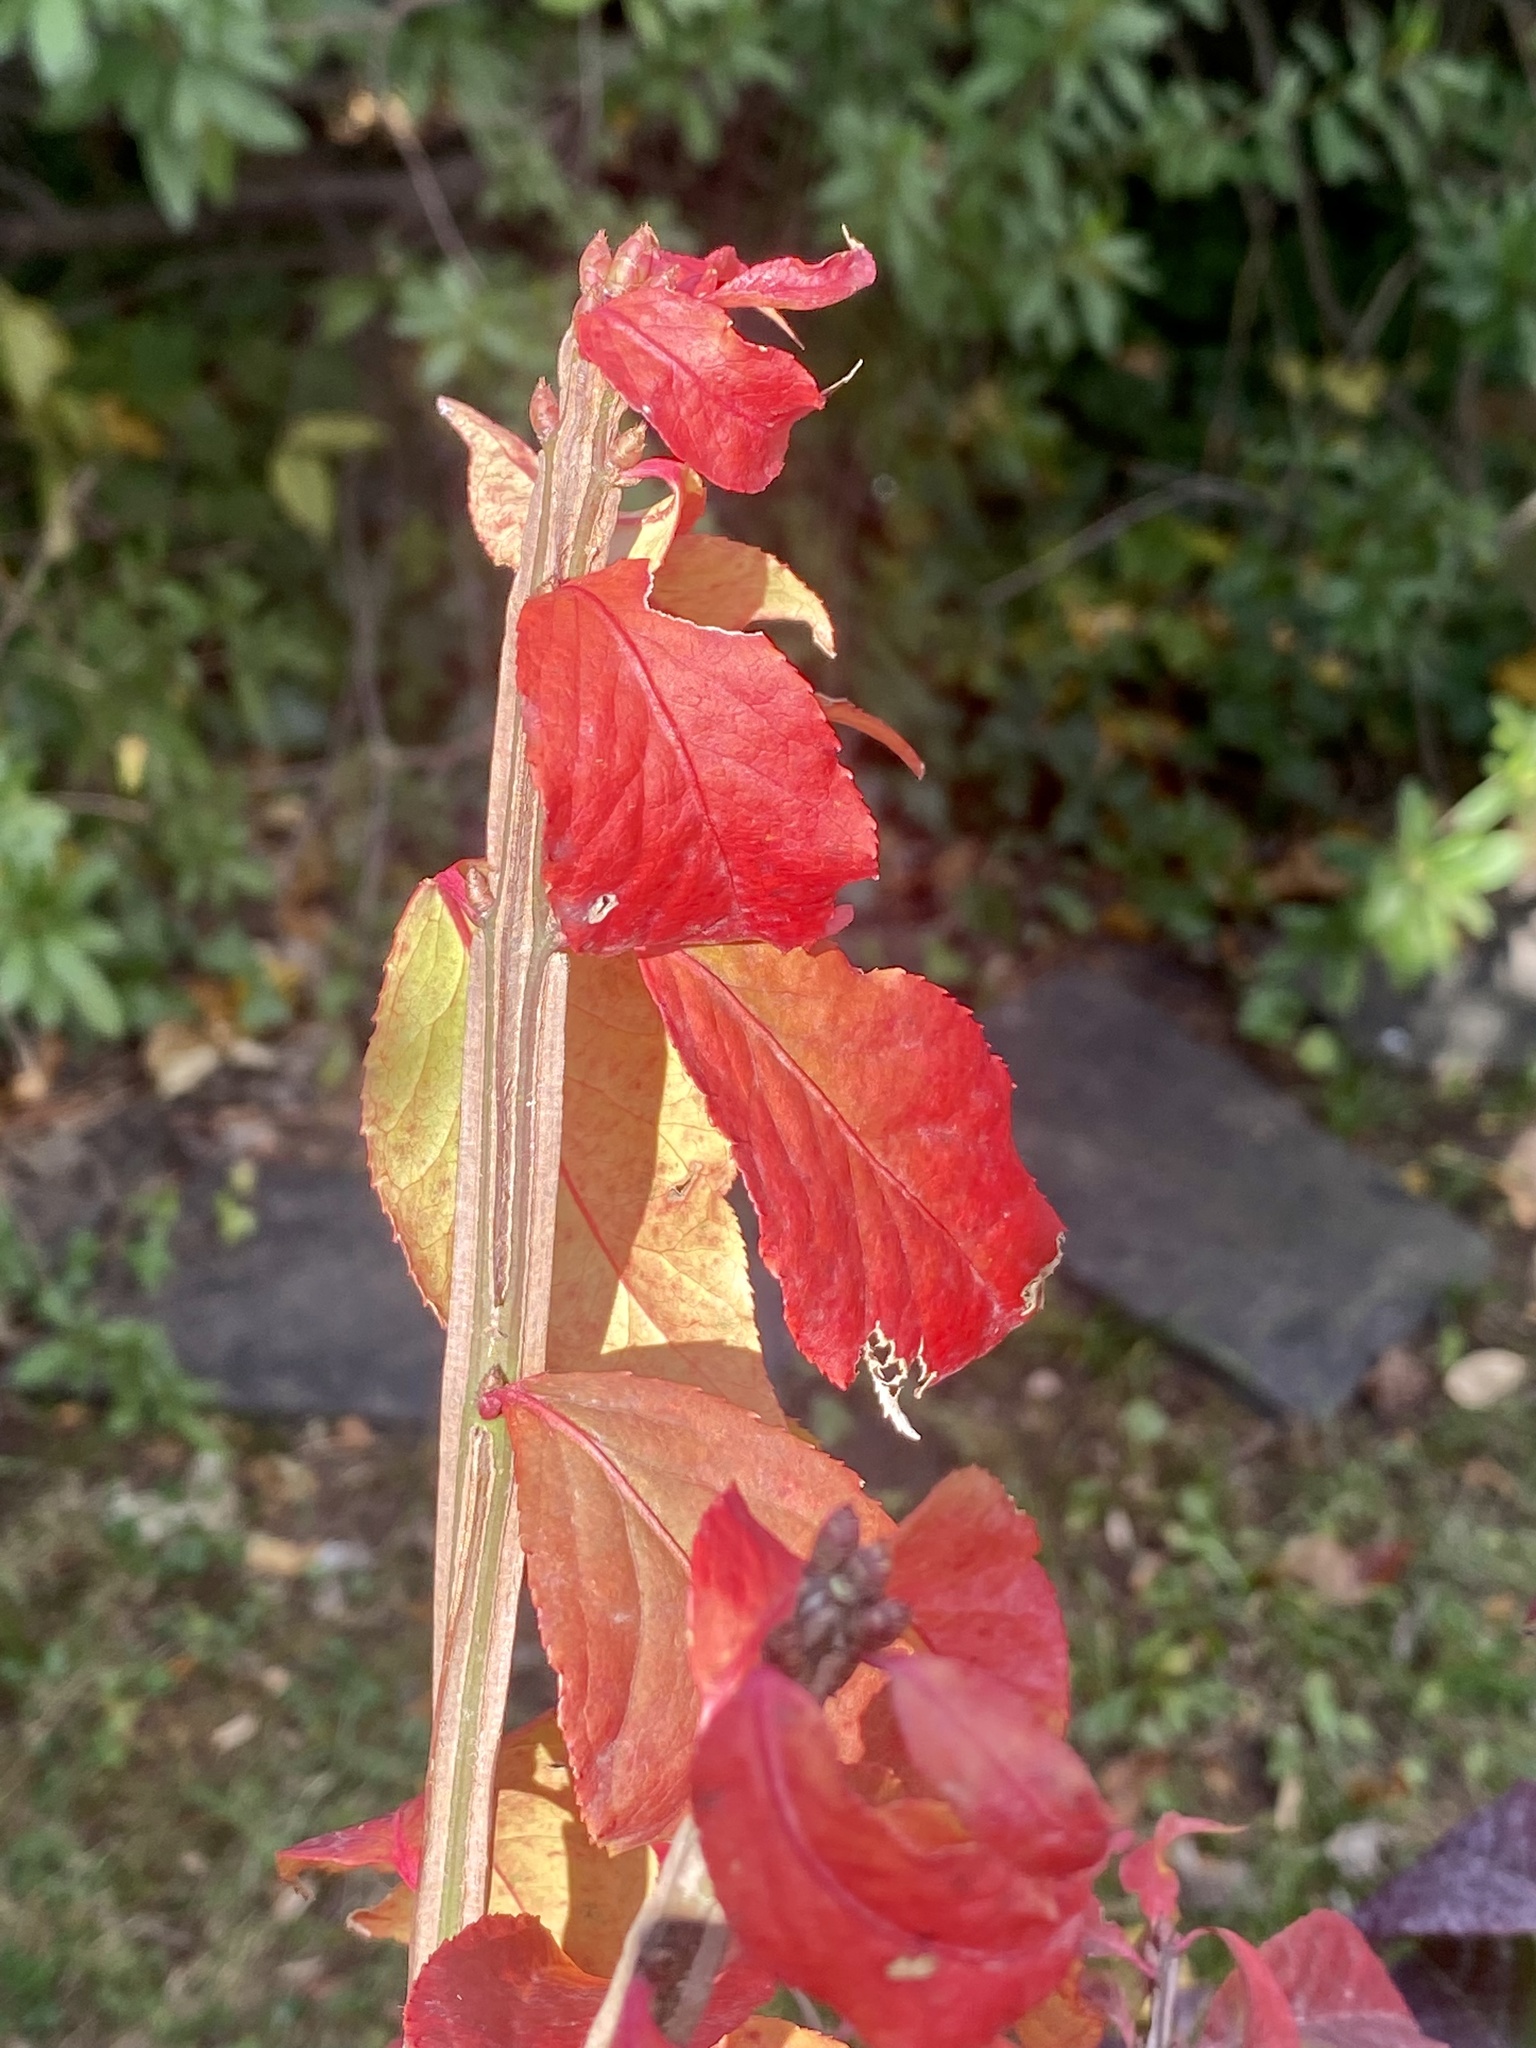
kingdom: Plantae
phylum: Tracheophyta
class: Magnoliopsida
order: Celastrales
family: Celastraceae
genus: Euonymus
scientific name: Euonymus alatus
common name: Winged euonymus
